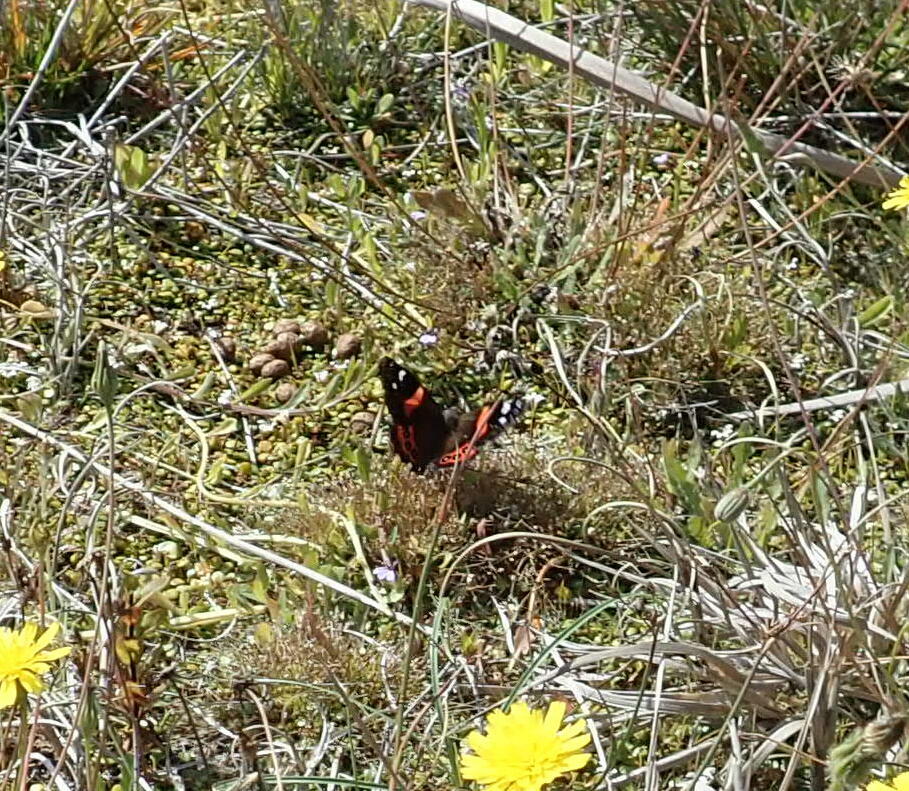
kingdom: Animalia
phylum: Arthropoda
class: Insecta
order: Lepidoptera
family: Nymphalidae
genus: Vanessa
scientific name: Vanessa gonerilla
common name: New zealand red admiral
